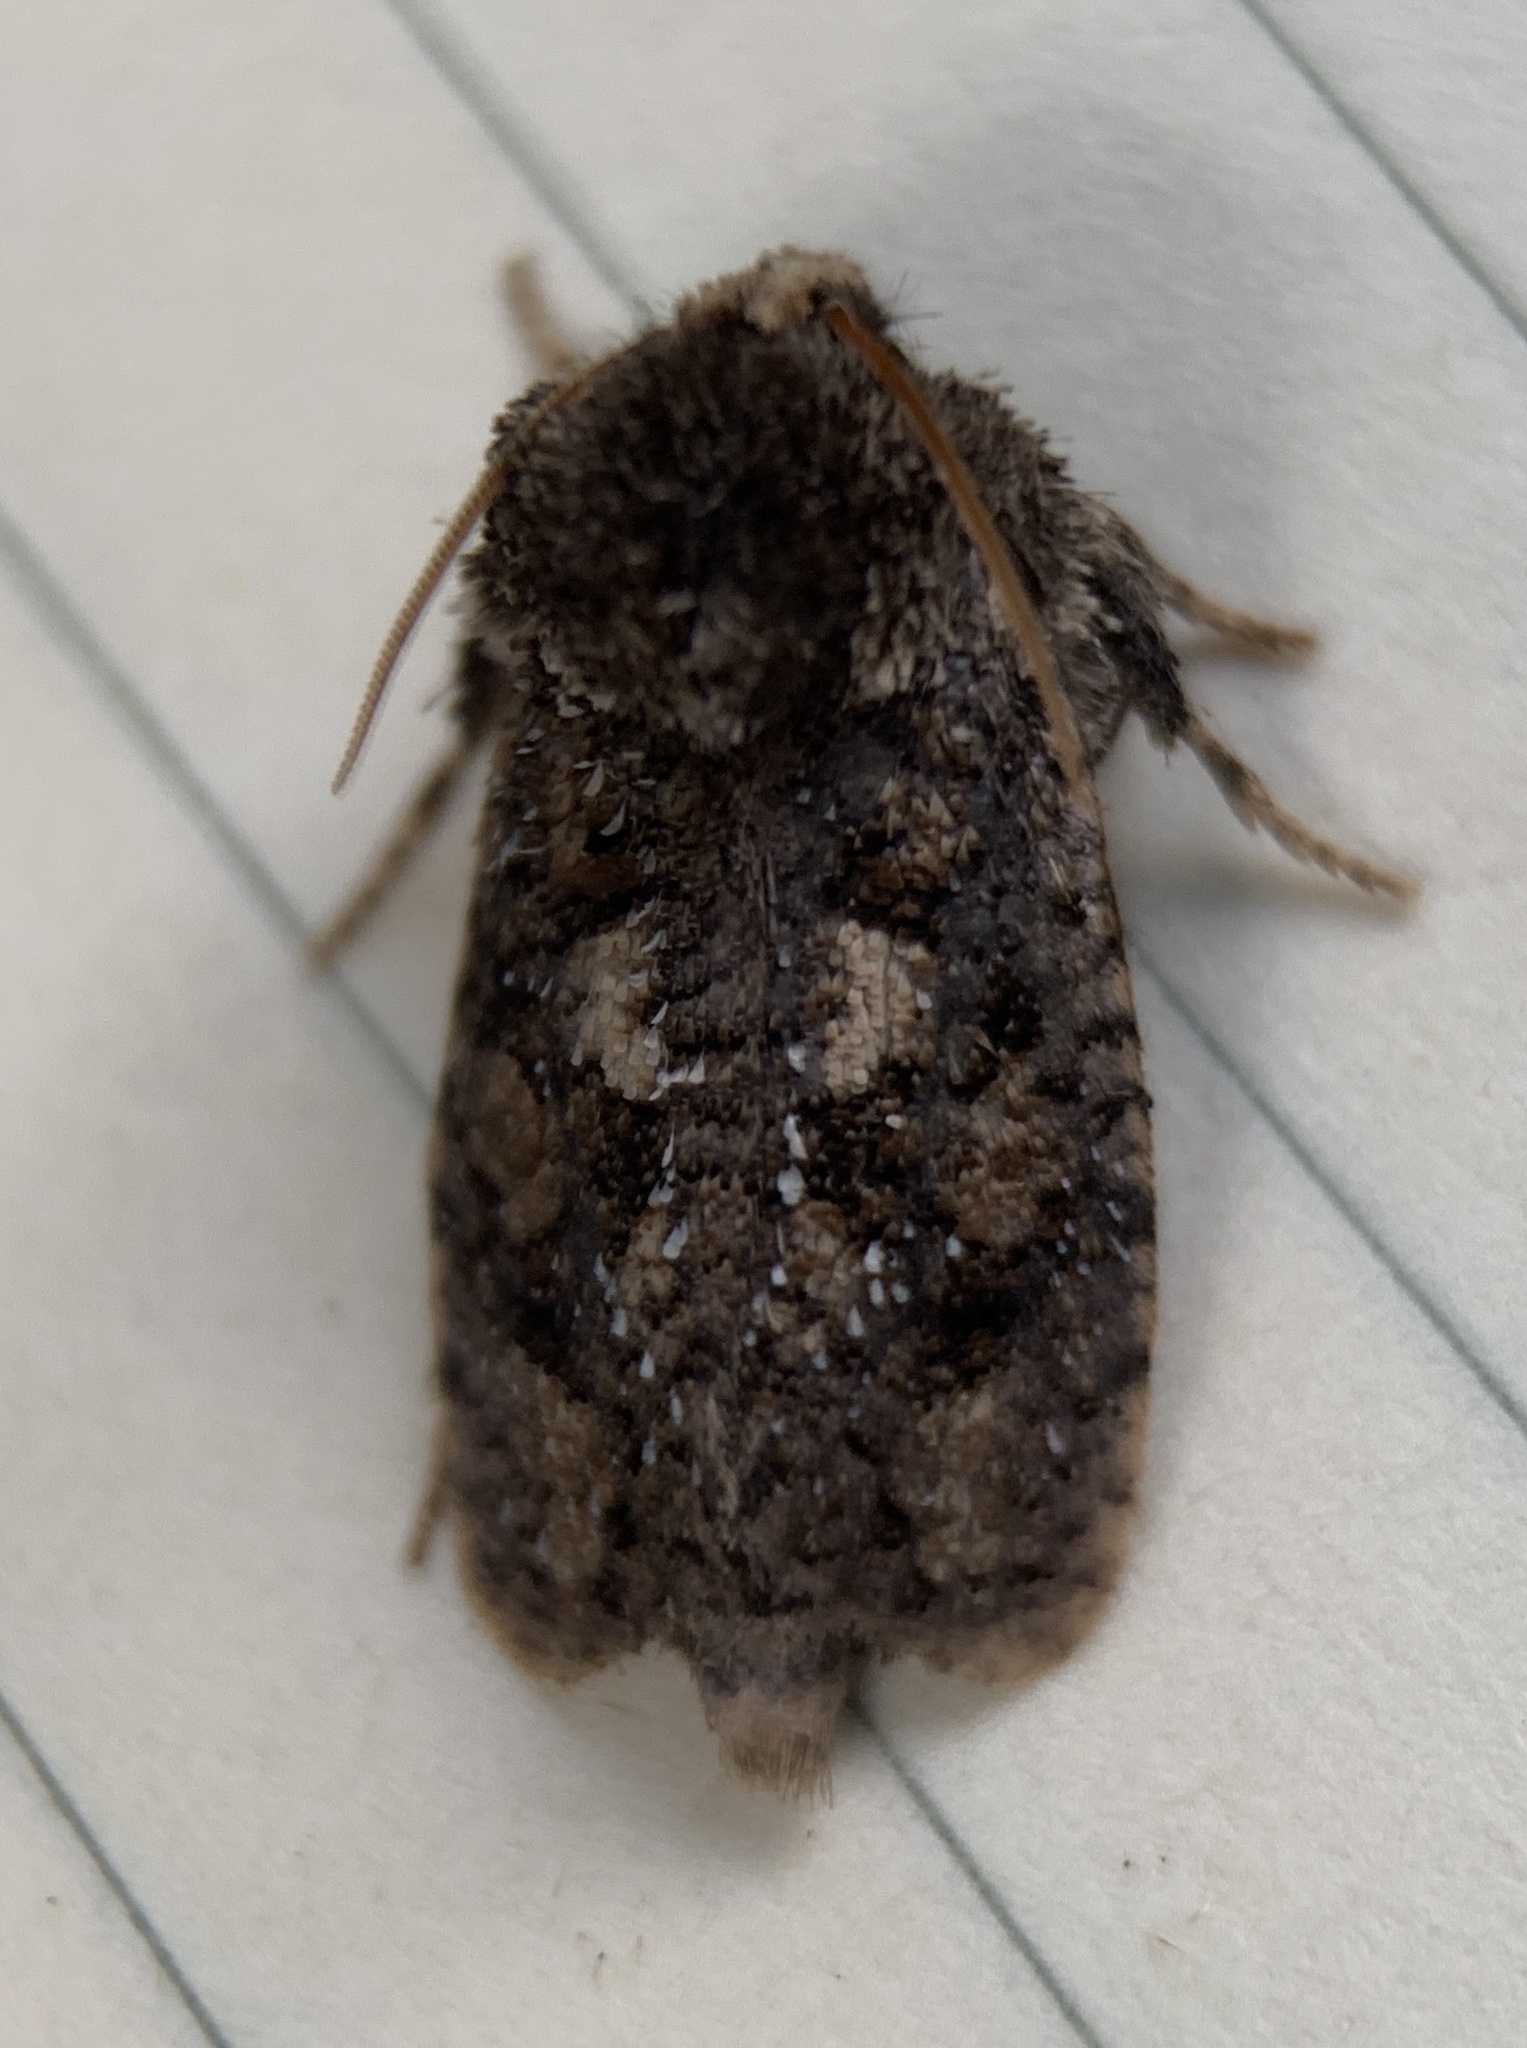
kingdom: Animalia
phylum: Arthropoda
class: Insecta
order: Lepidoptera
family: Tineidae
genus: Acrolophus
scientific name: Acrolophus arcanella
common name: Arcane grass tubeworm moth
